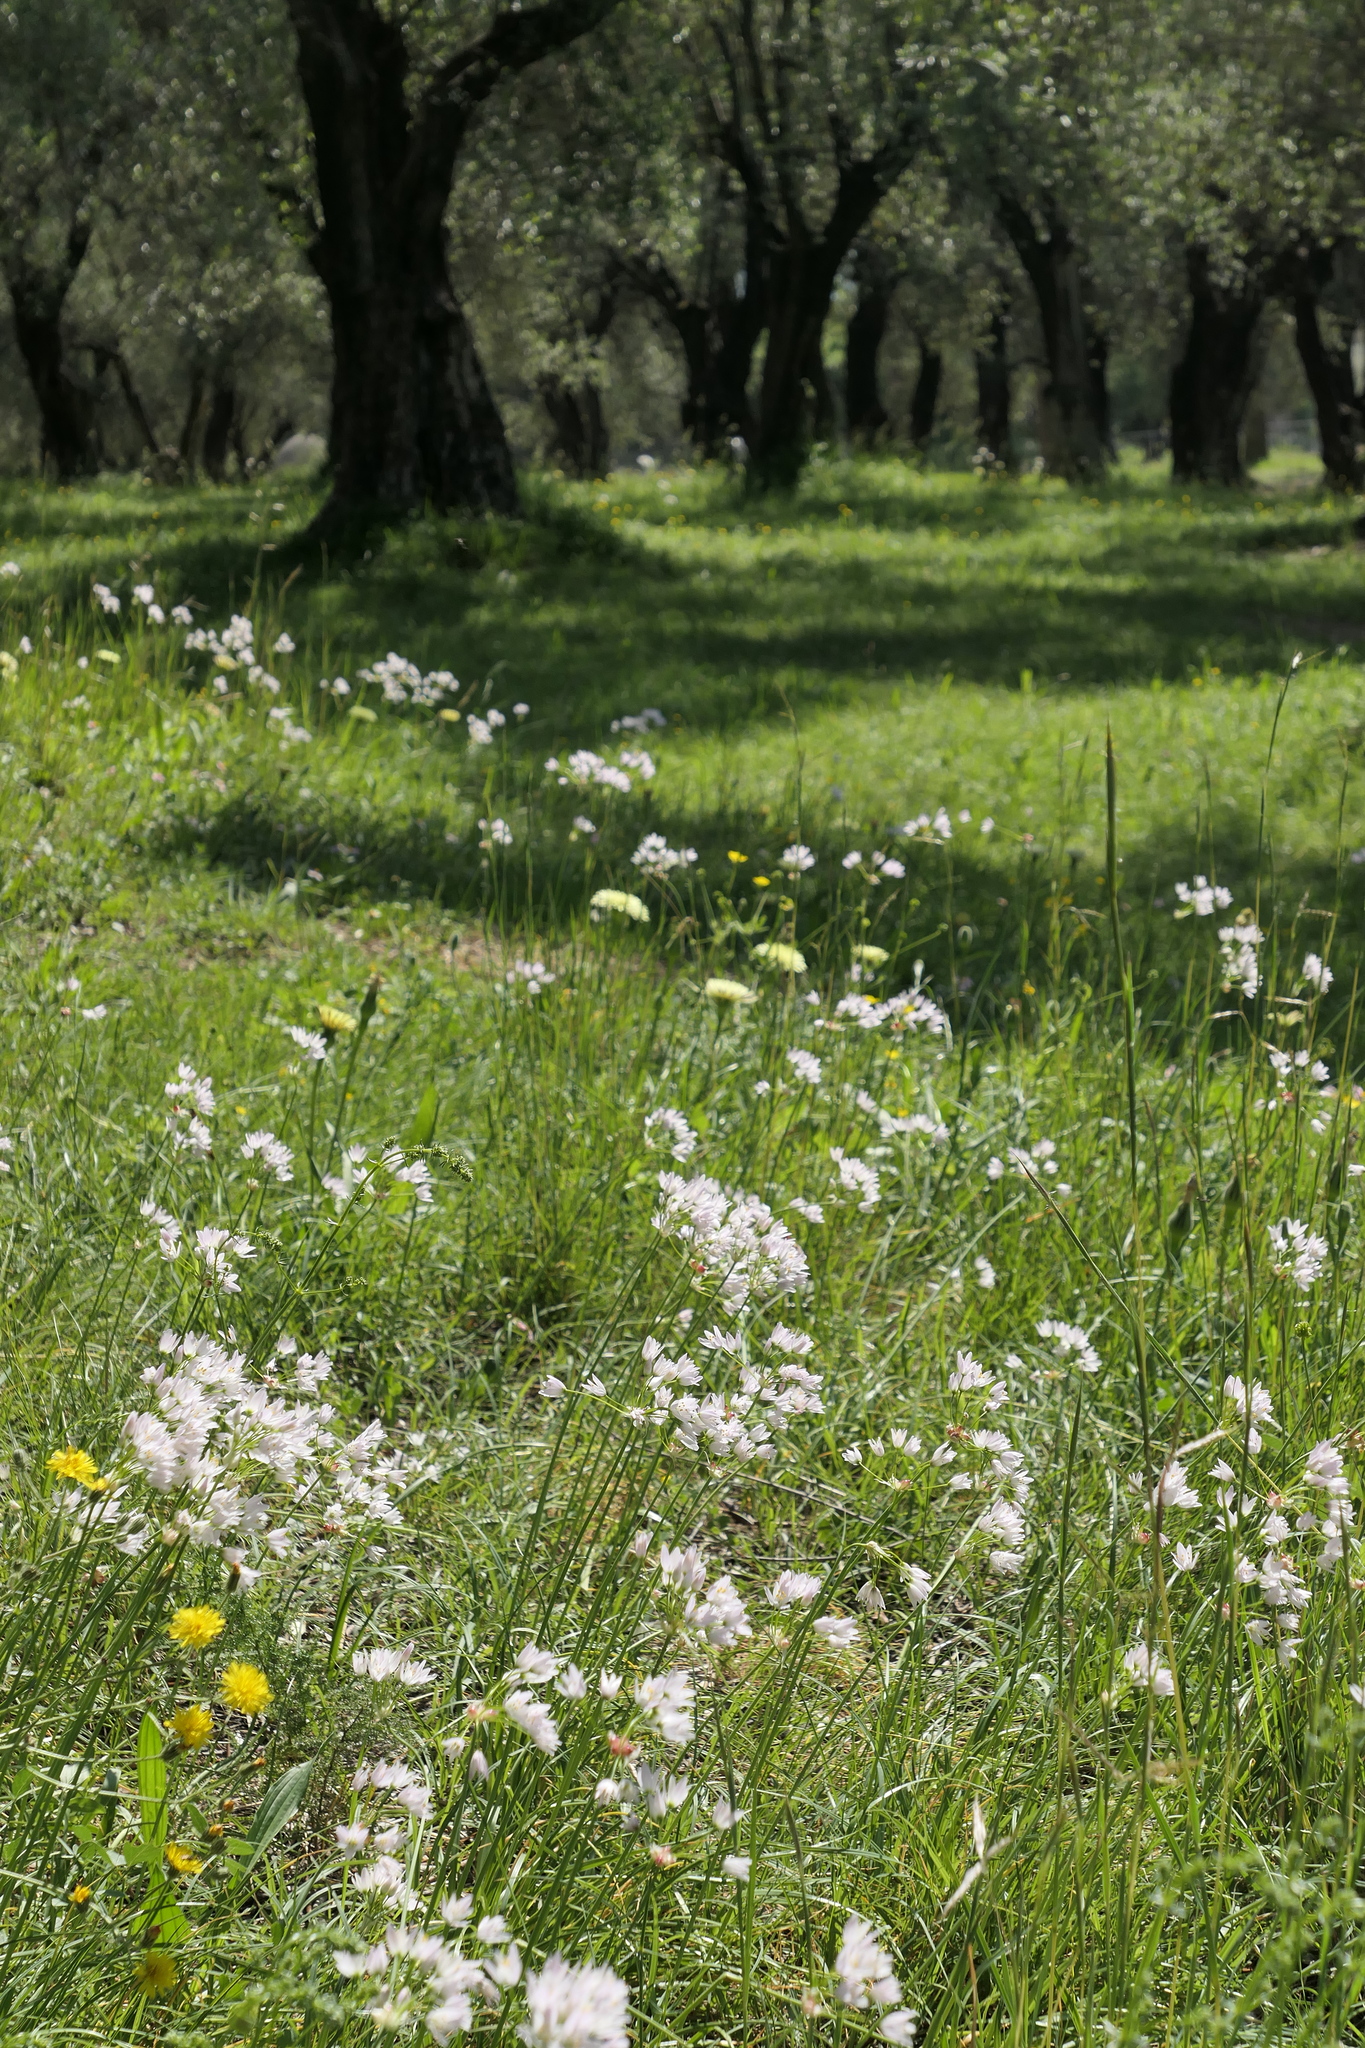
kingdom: Plantae
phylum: Tracheophyta
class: Liliopsida
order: Asparagales
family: Amaryllidaceae
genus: Allium
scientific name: Allium roseum
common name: Rosy garlic
